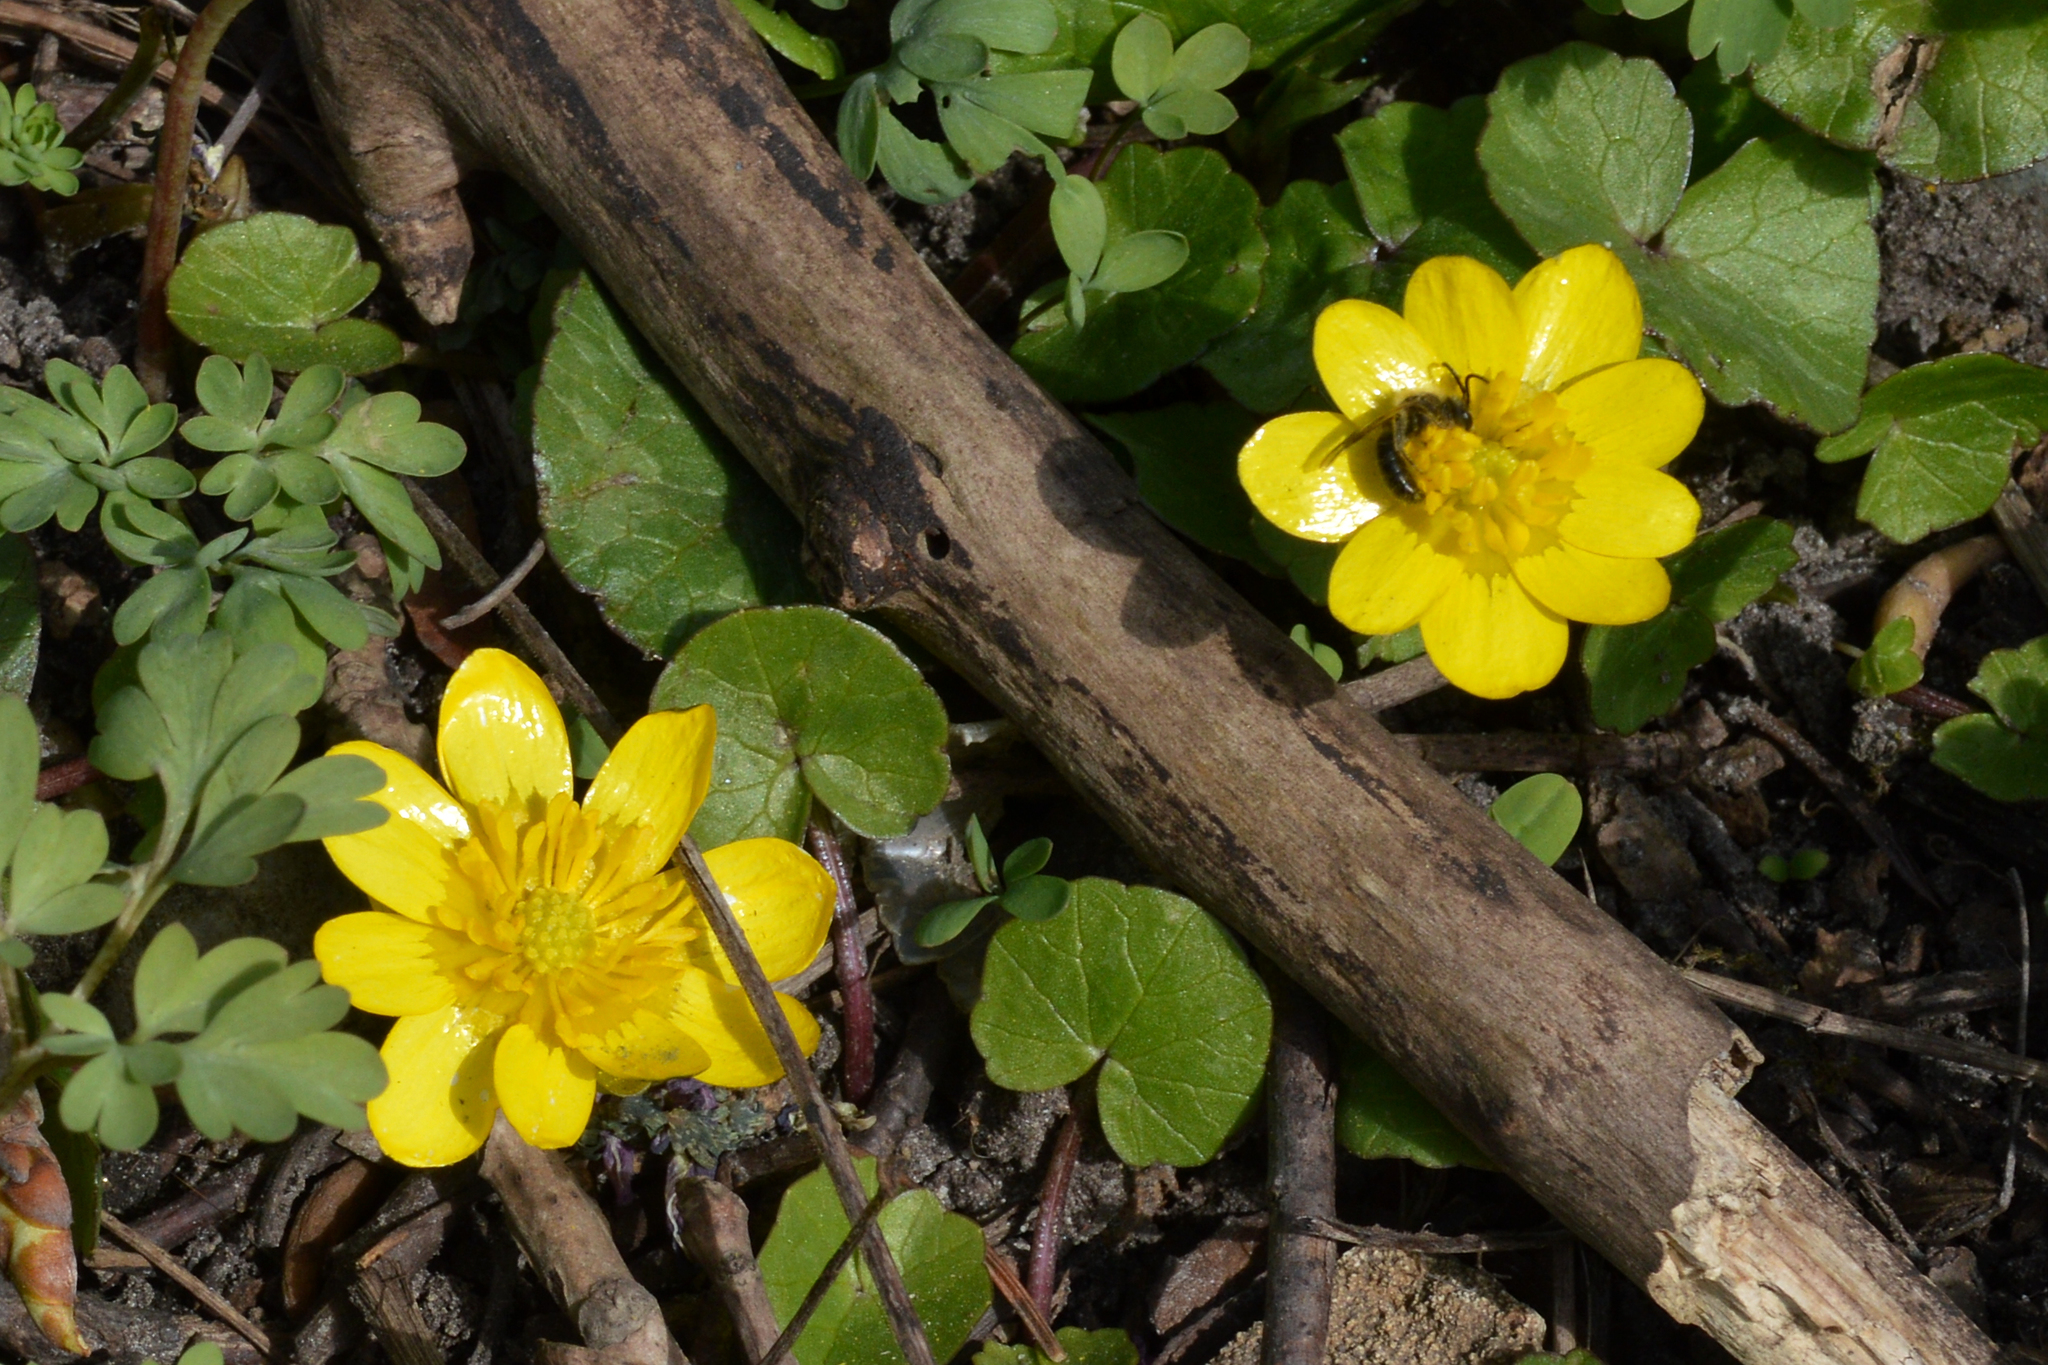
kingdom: Plantae
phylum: Tracheophyta
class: Magnoliopsida
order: Ranunculales
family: Ranunculaceae
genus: Ficaria
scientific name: Ficaria verna
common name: Lesser celandine
